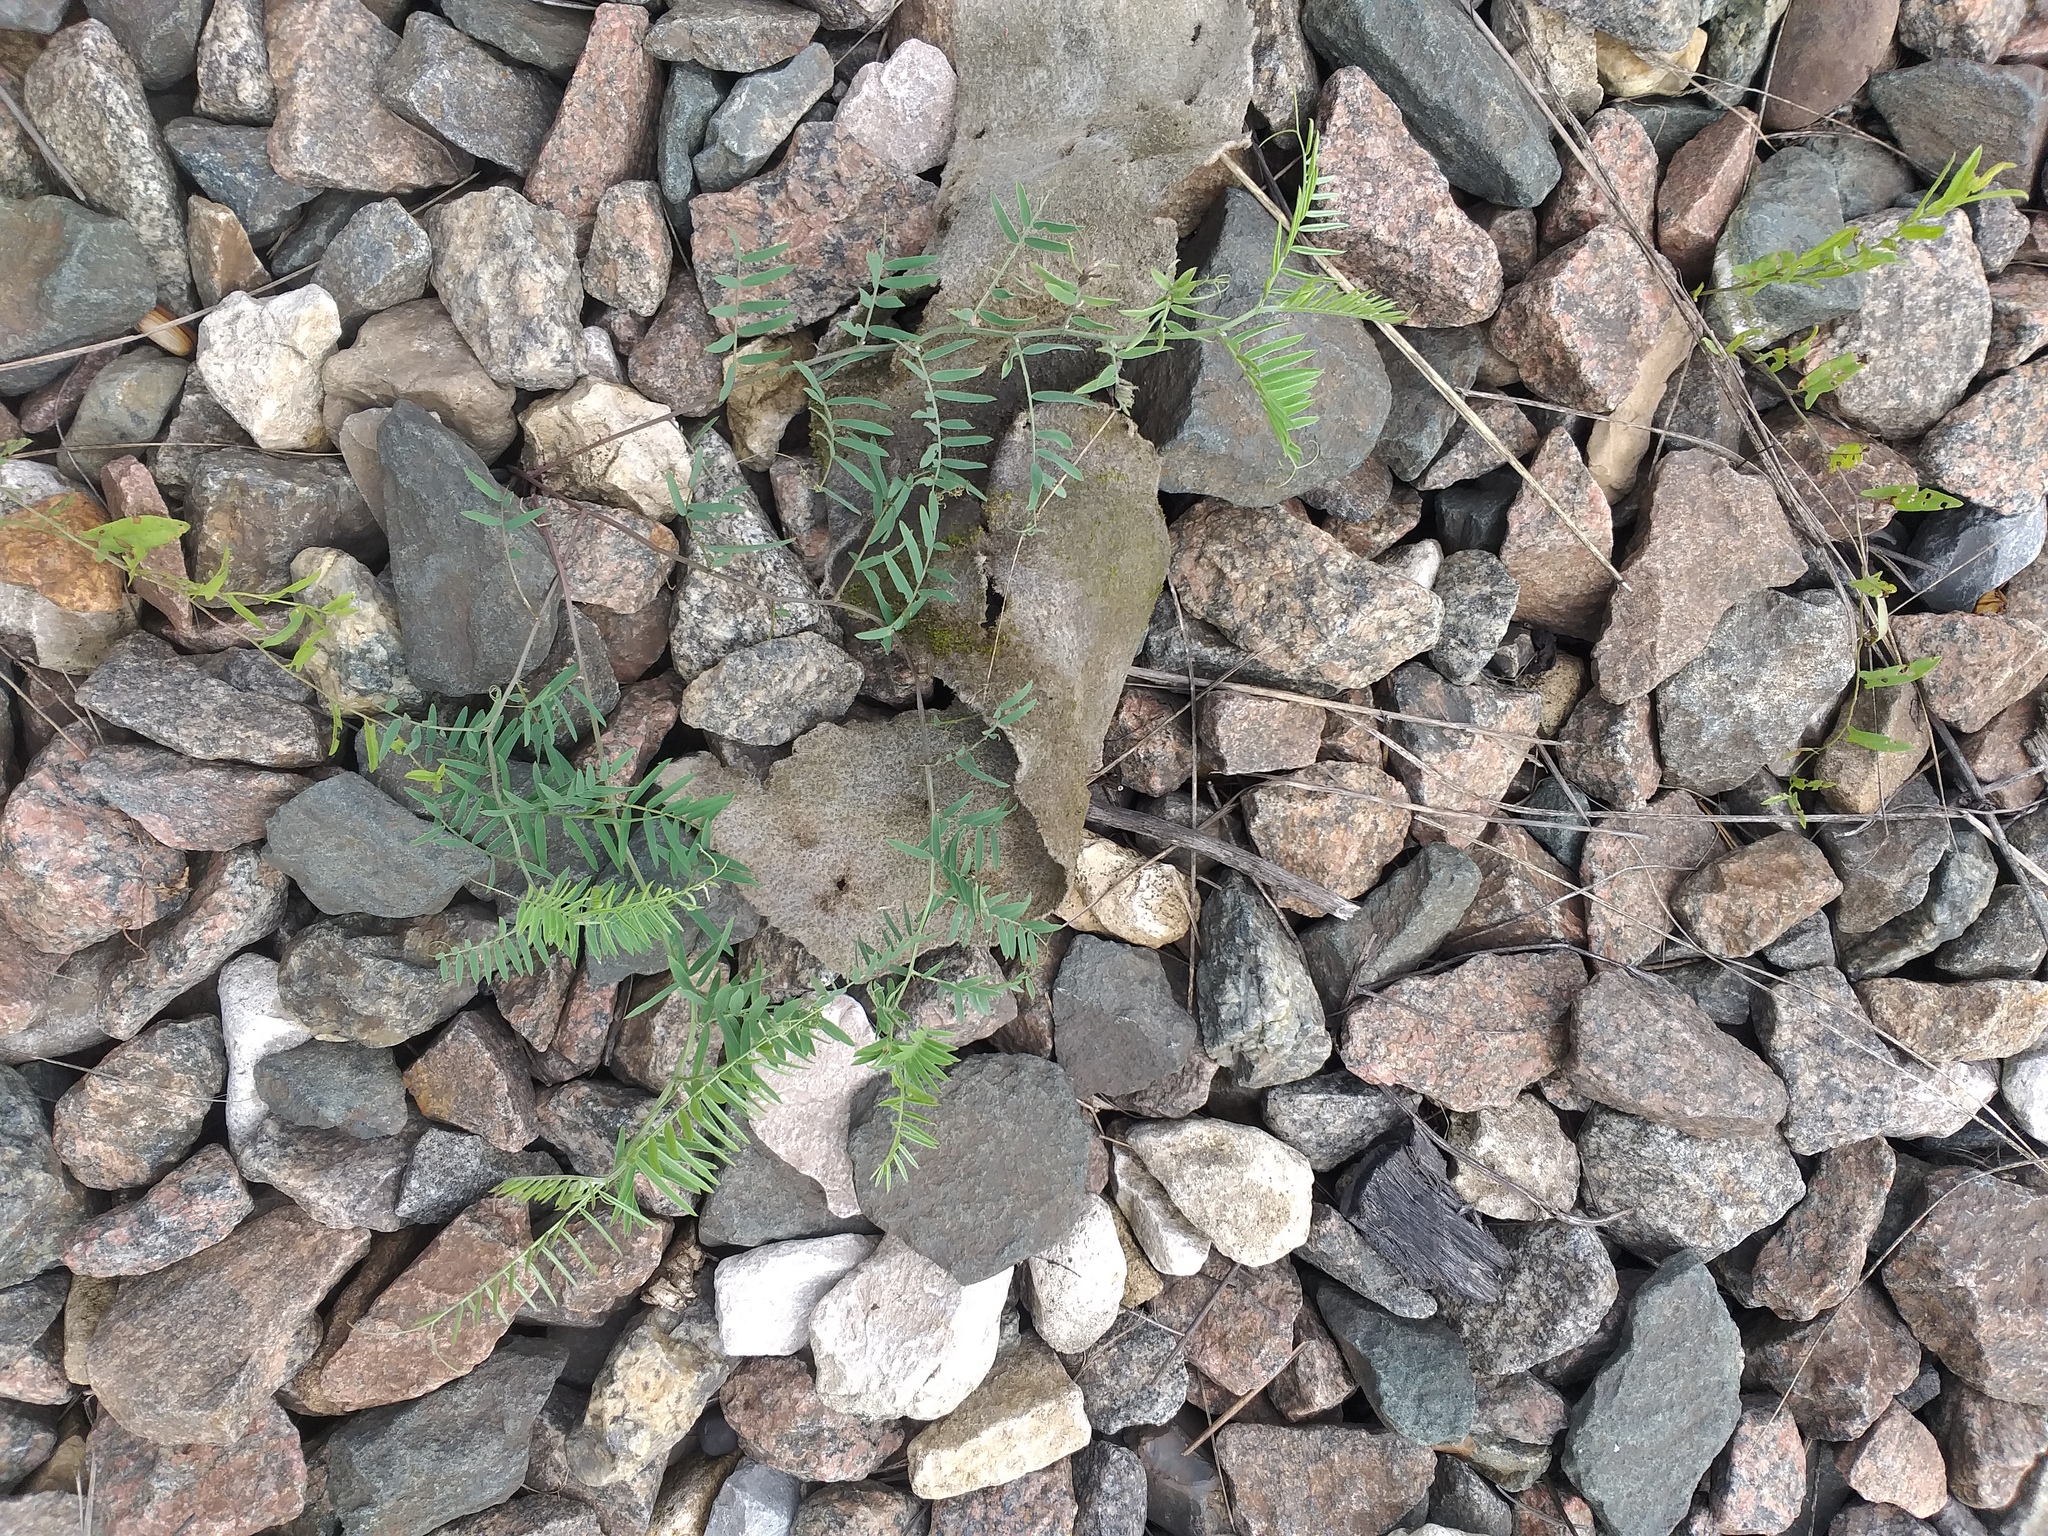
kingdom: Plantae
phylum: Tracheophyta
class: Magnoliopsida
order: Fabales
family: Fabaceae
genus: Vicia
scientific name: Vicia cracca
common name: Bird vetch
